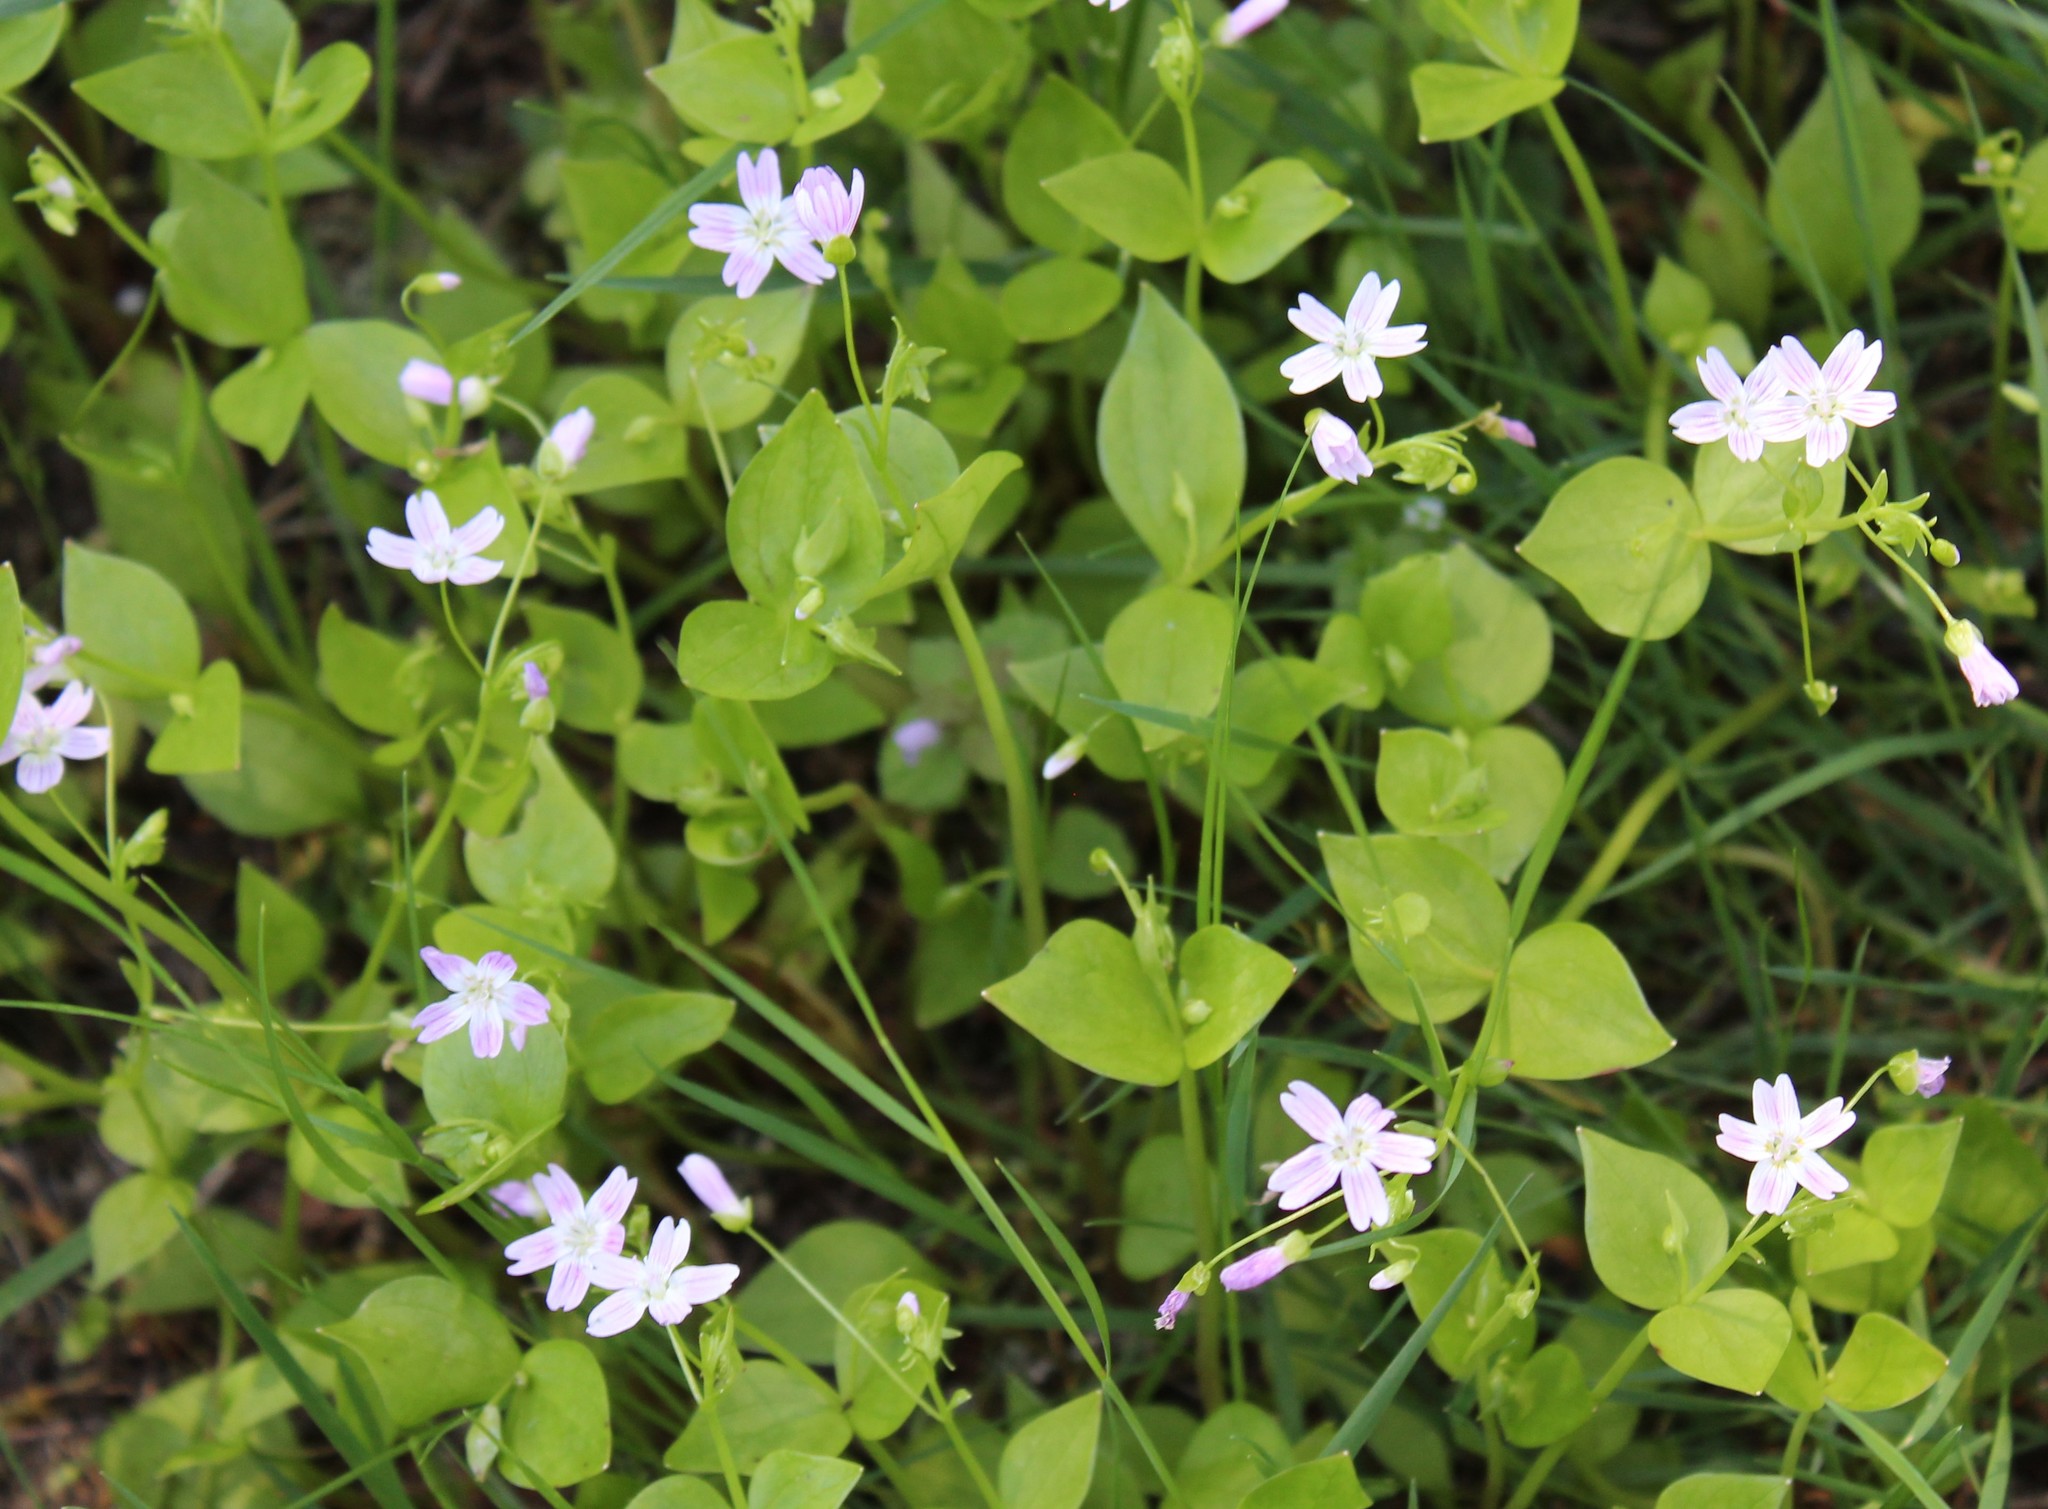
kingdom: Plantae
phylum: Tracheophyta
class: Magnoliopsida
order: Caryophyllales
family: Montiaceae
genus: Claytonia
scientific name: Claytonia sibirica
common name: Pink purslane
